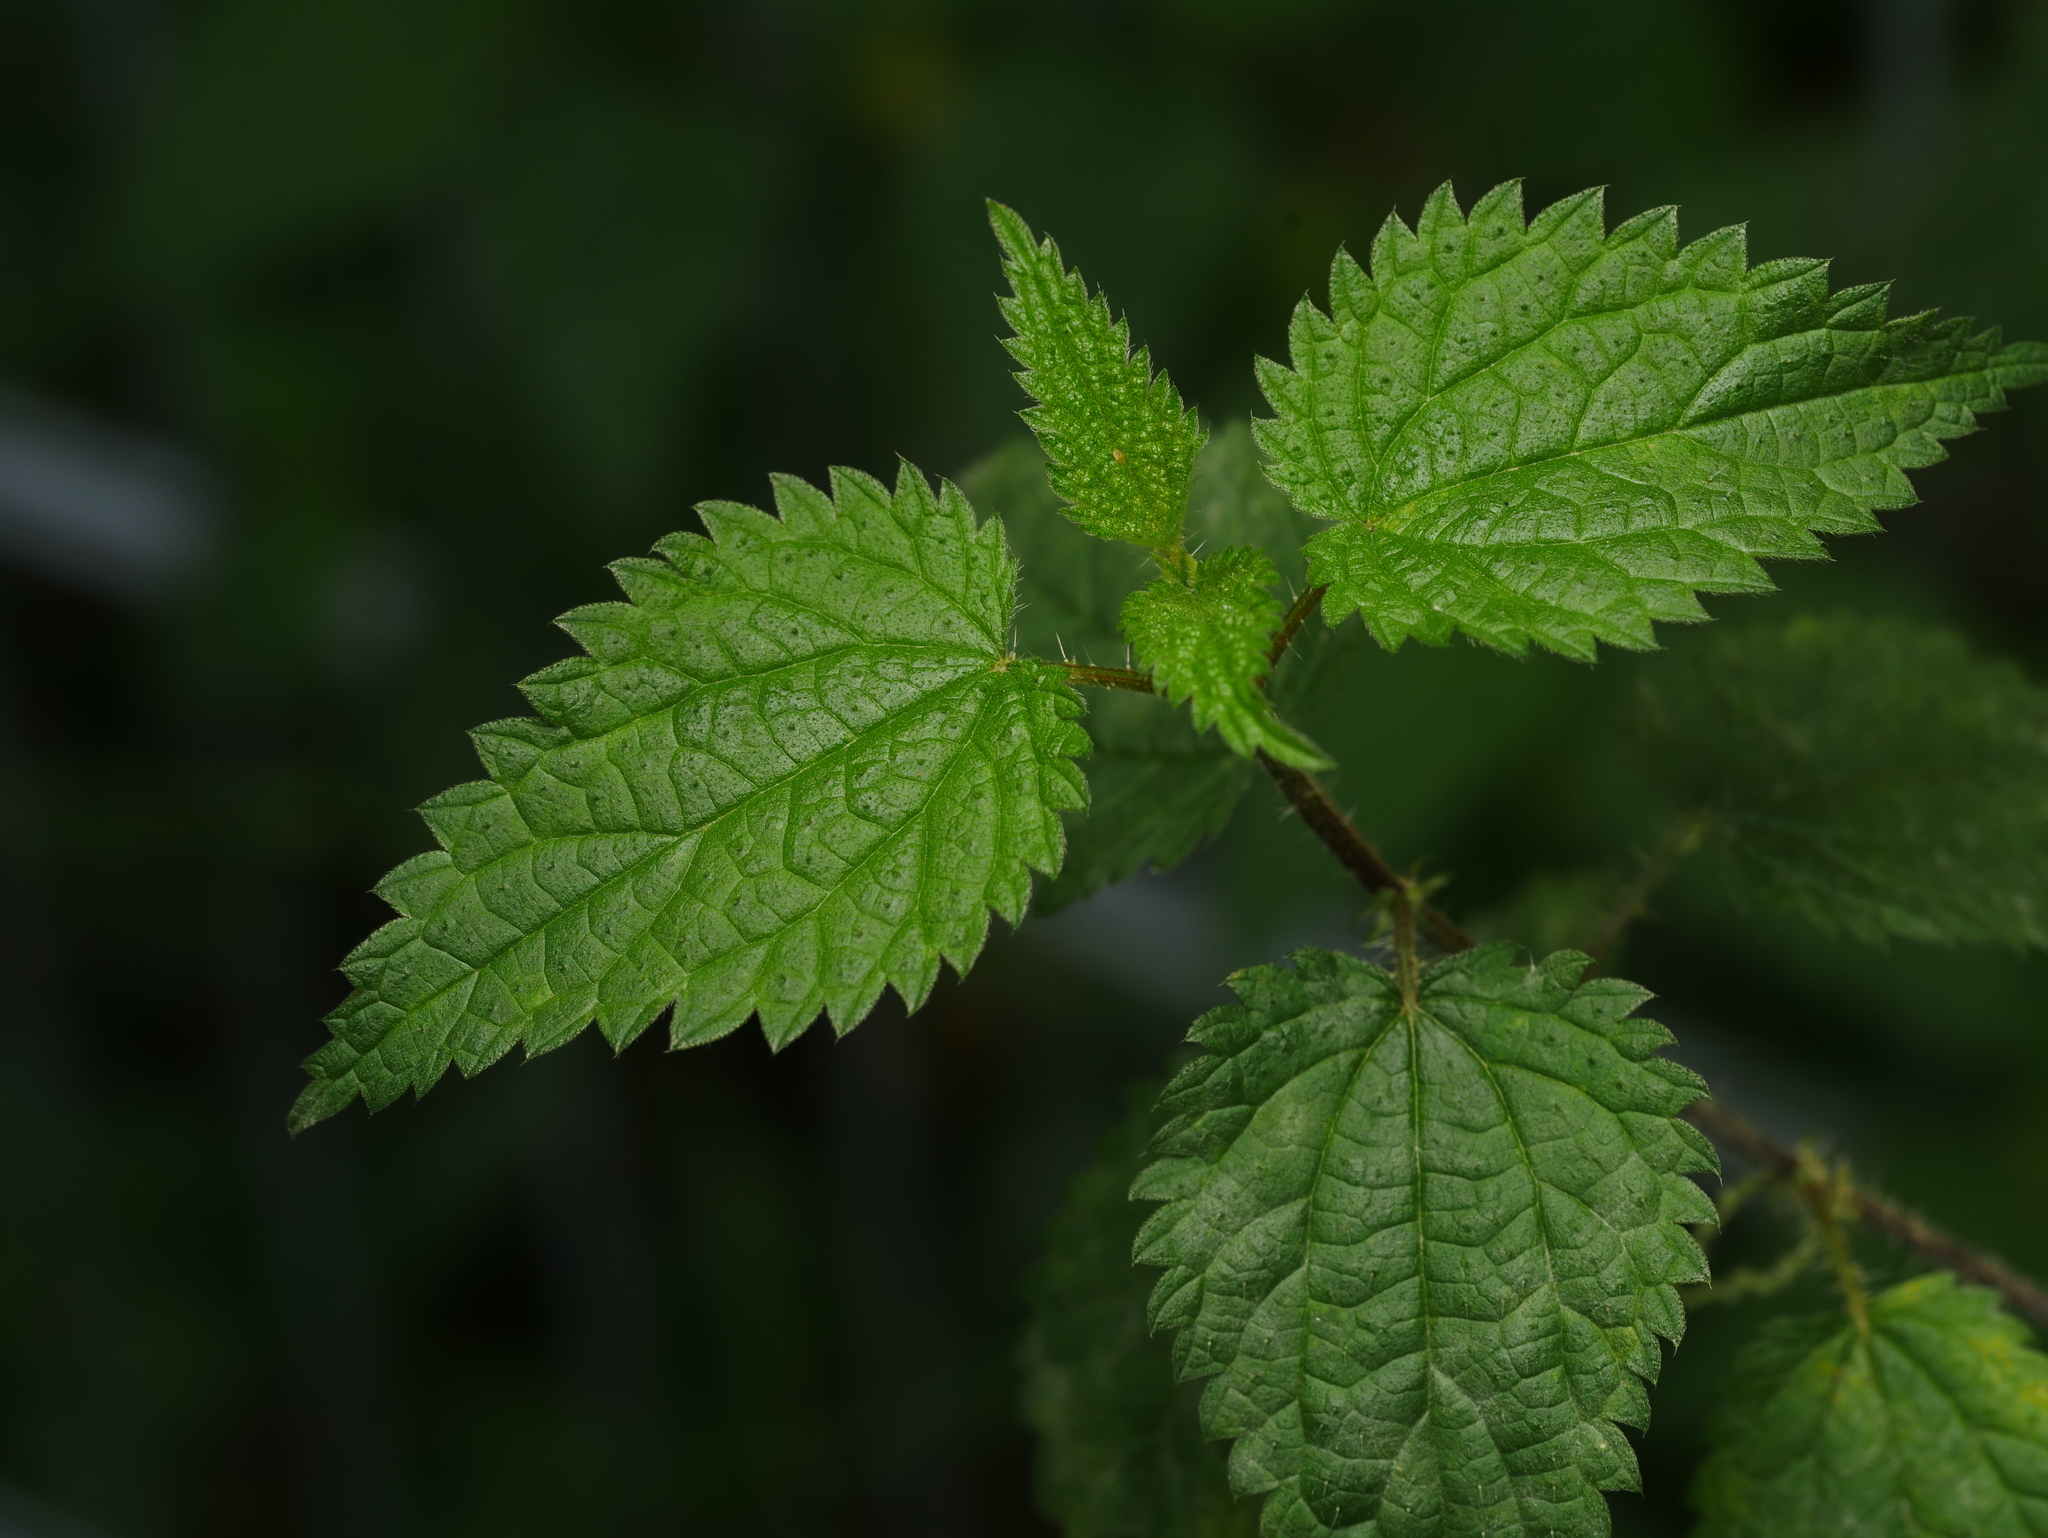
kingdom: Plantae
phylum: Tracheophyta
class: Magnoliopsida
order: Rosales
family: Urticaceae
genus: Urtica
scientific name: Urtica dioica
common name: Common nettle
